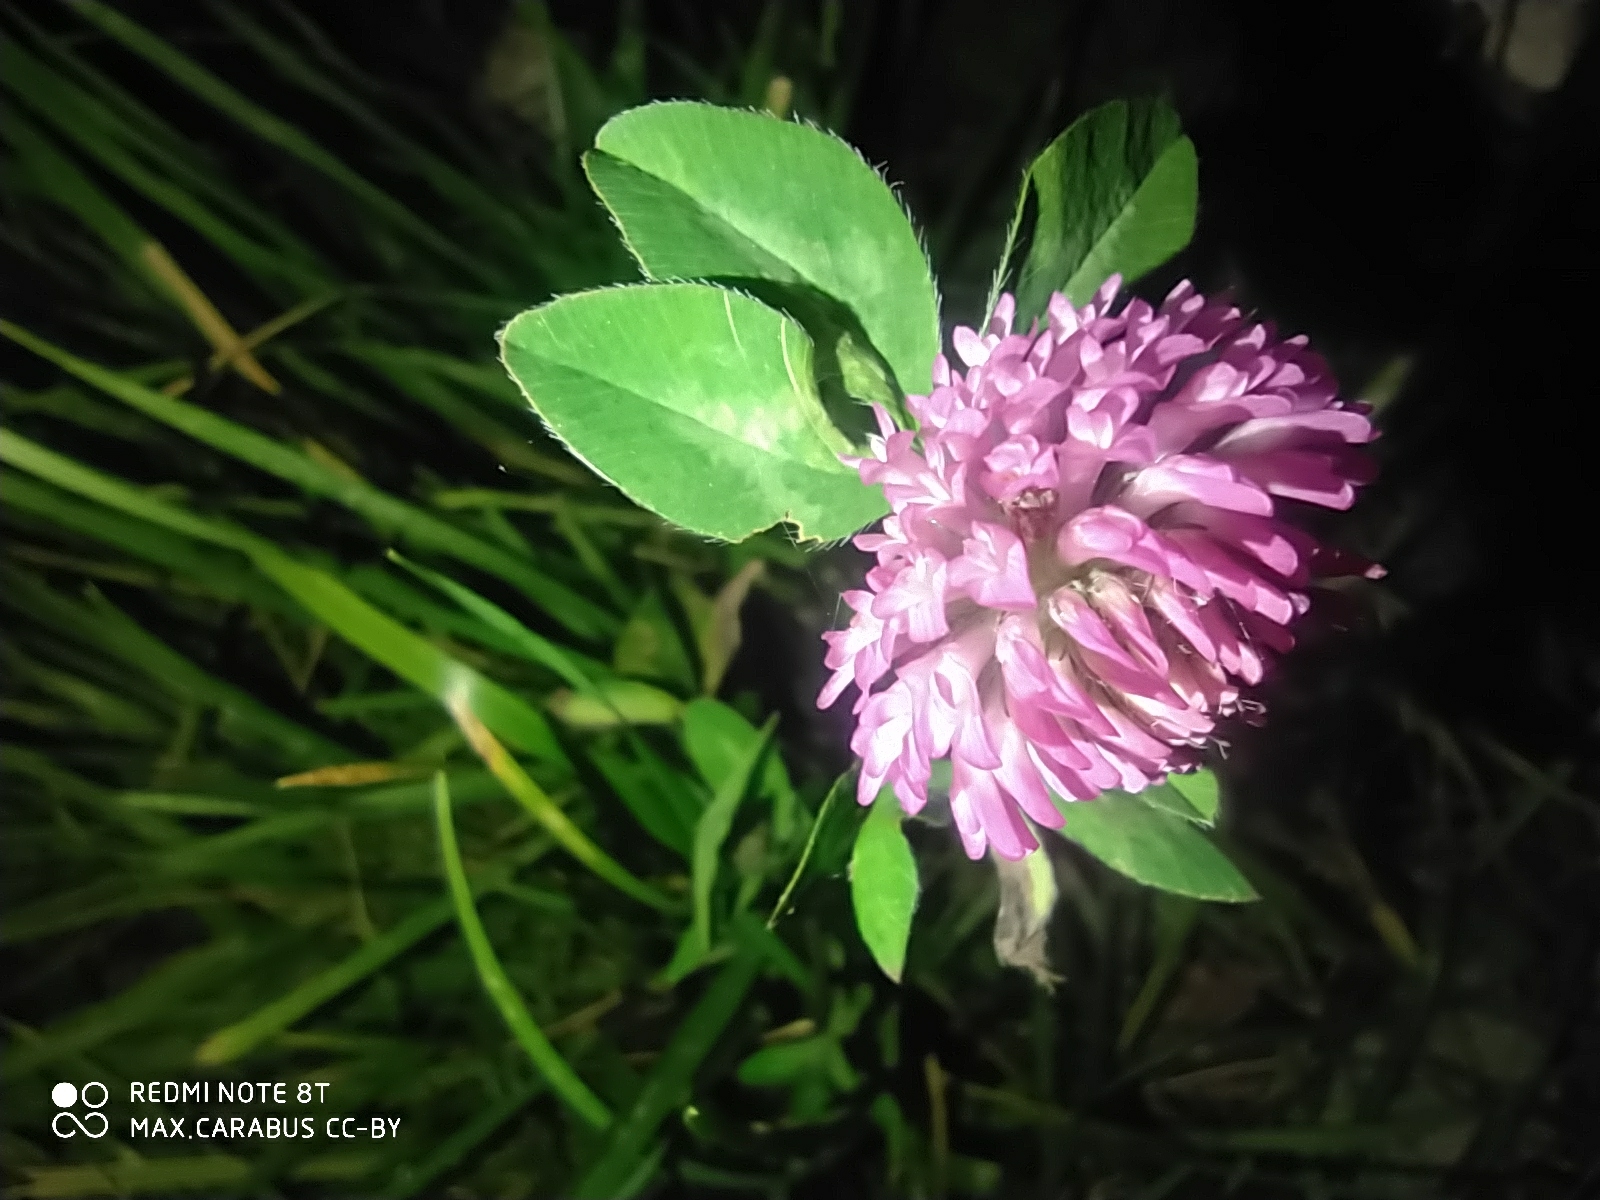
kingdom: Plantae
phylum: Tracheophyta
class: Magnoliopsida
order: Fabales
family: Fabaceae
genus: Trifolium
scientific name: Trifolium pratense
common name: Red clover
